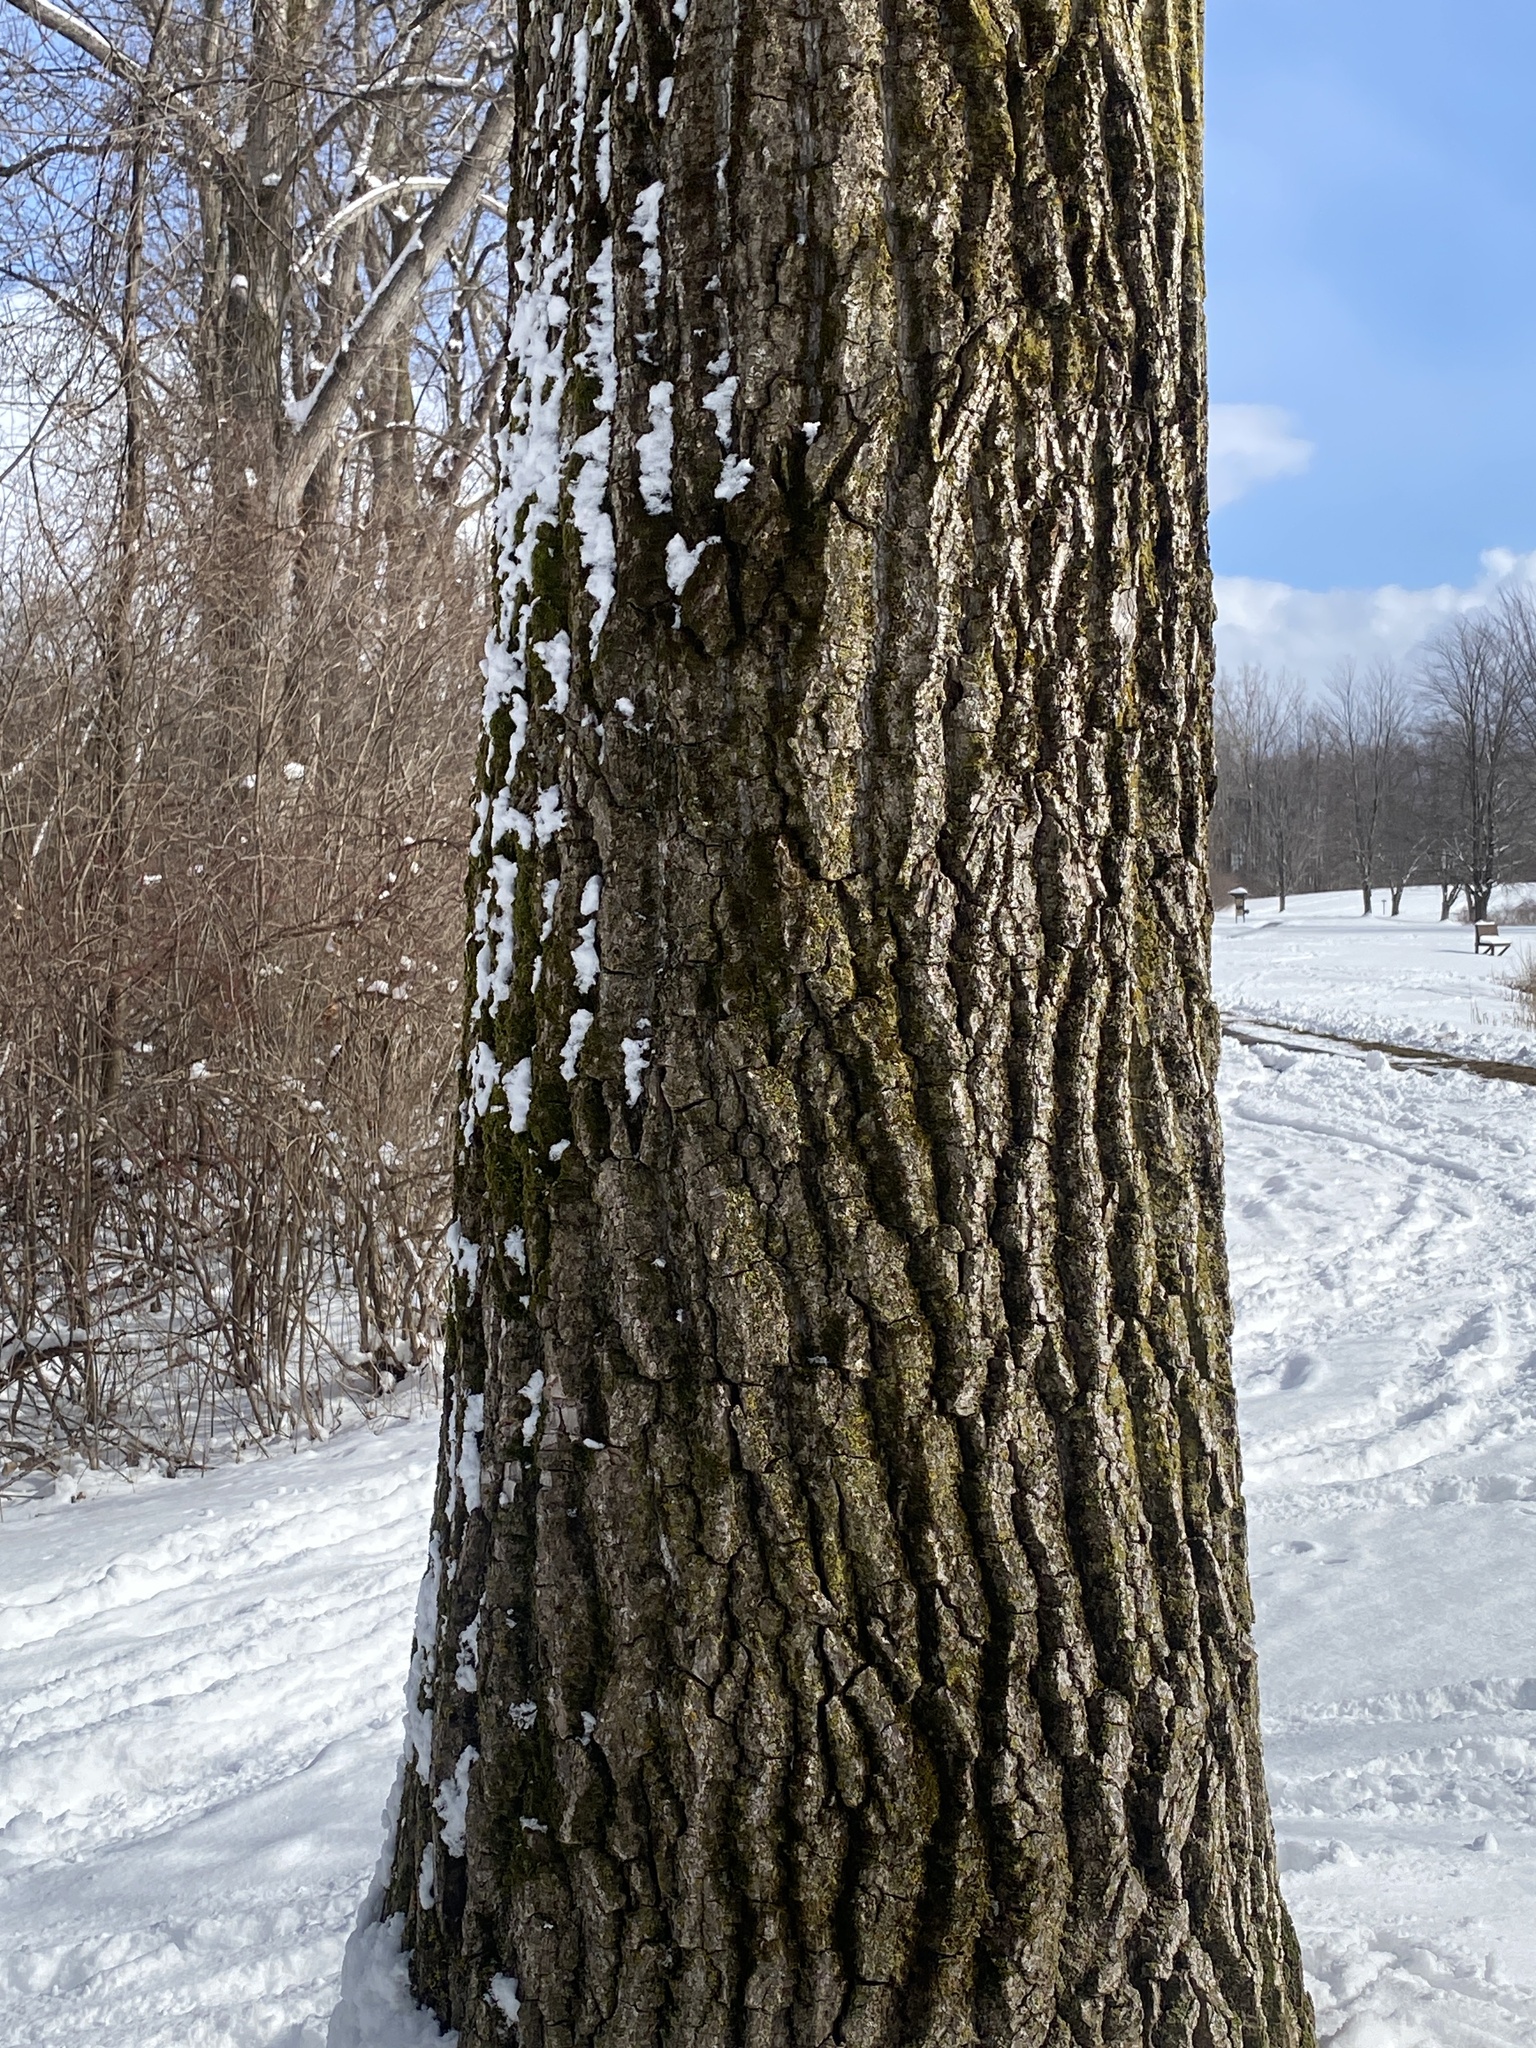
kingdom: Plantae
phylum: Tracheophyta
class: Magnoliopsida
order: Malpighiales
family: Salicaceae
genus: Populus
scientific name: Populus deltoides
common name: Eastern cottonwood
